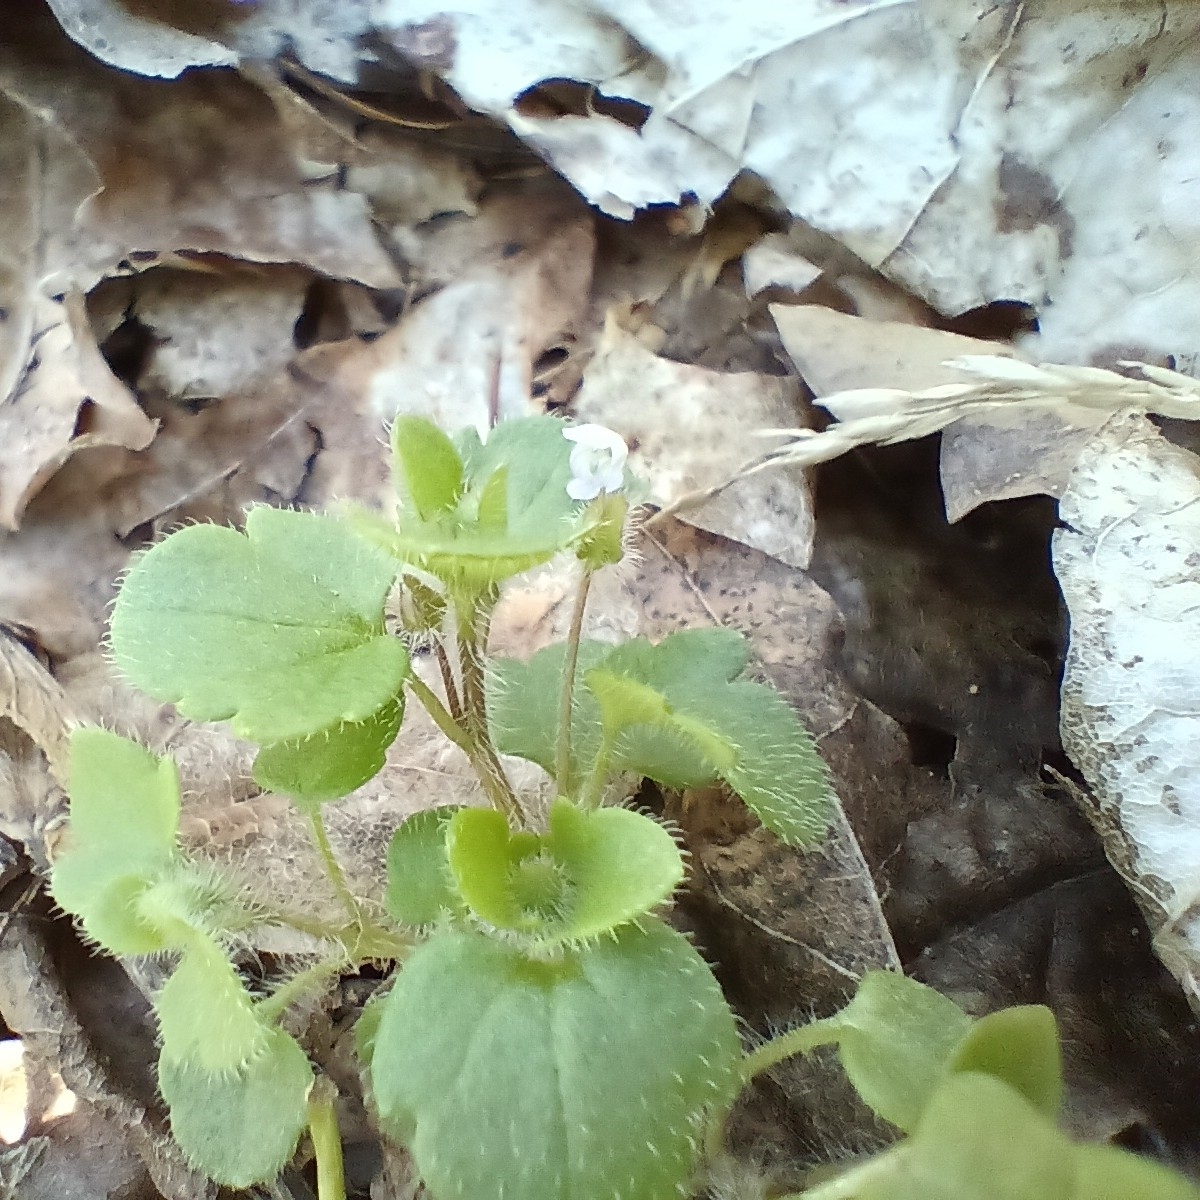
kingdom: Plantae
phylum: Tracheophyta
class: Magnoliopsida
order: Lamiales
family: Plantaginaceae
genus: Veronica
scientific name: Veronica sublobata
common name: False ivy-leaved speedwell
